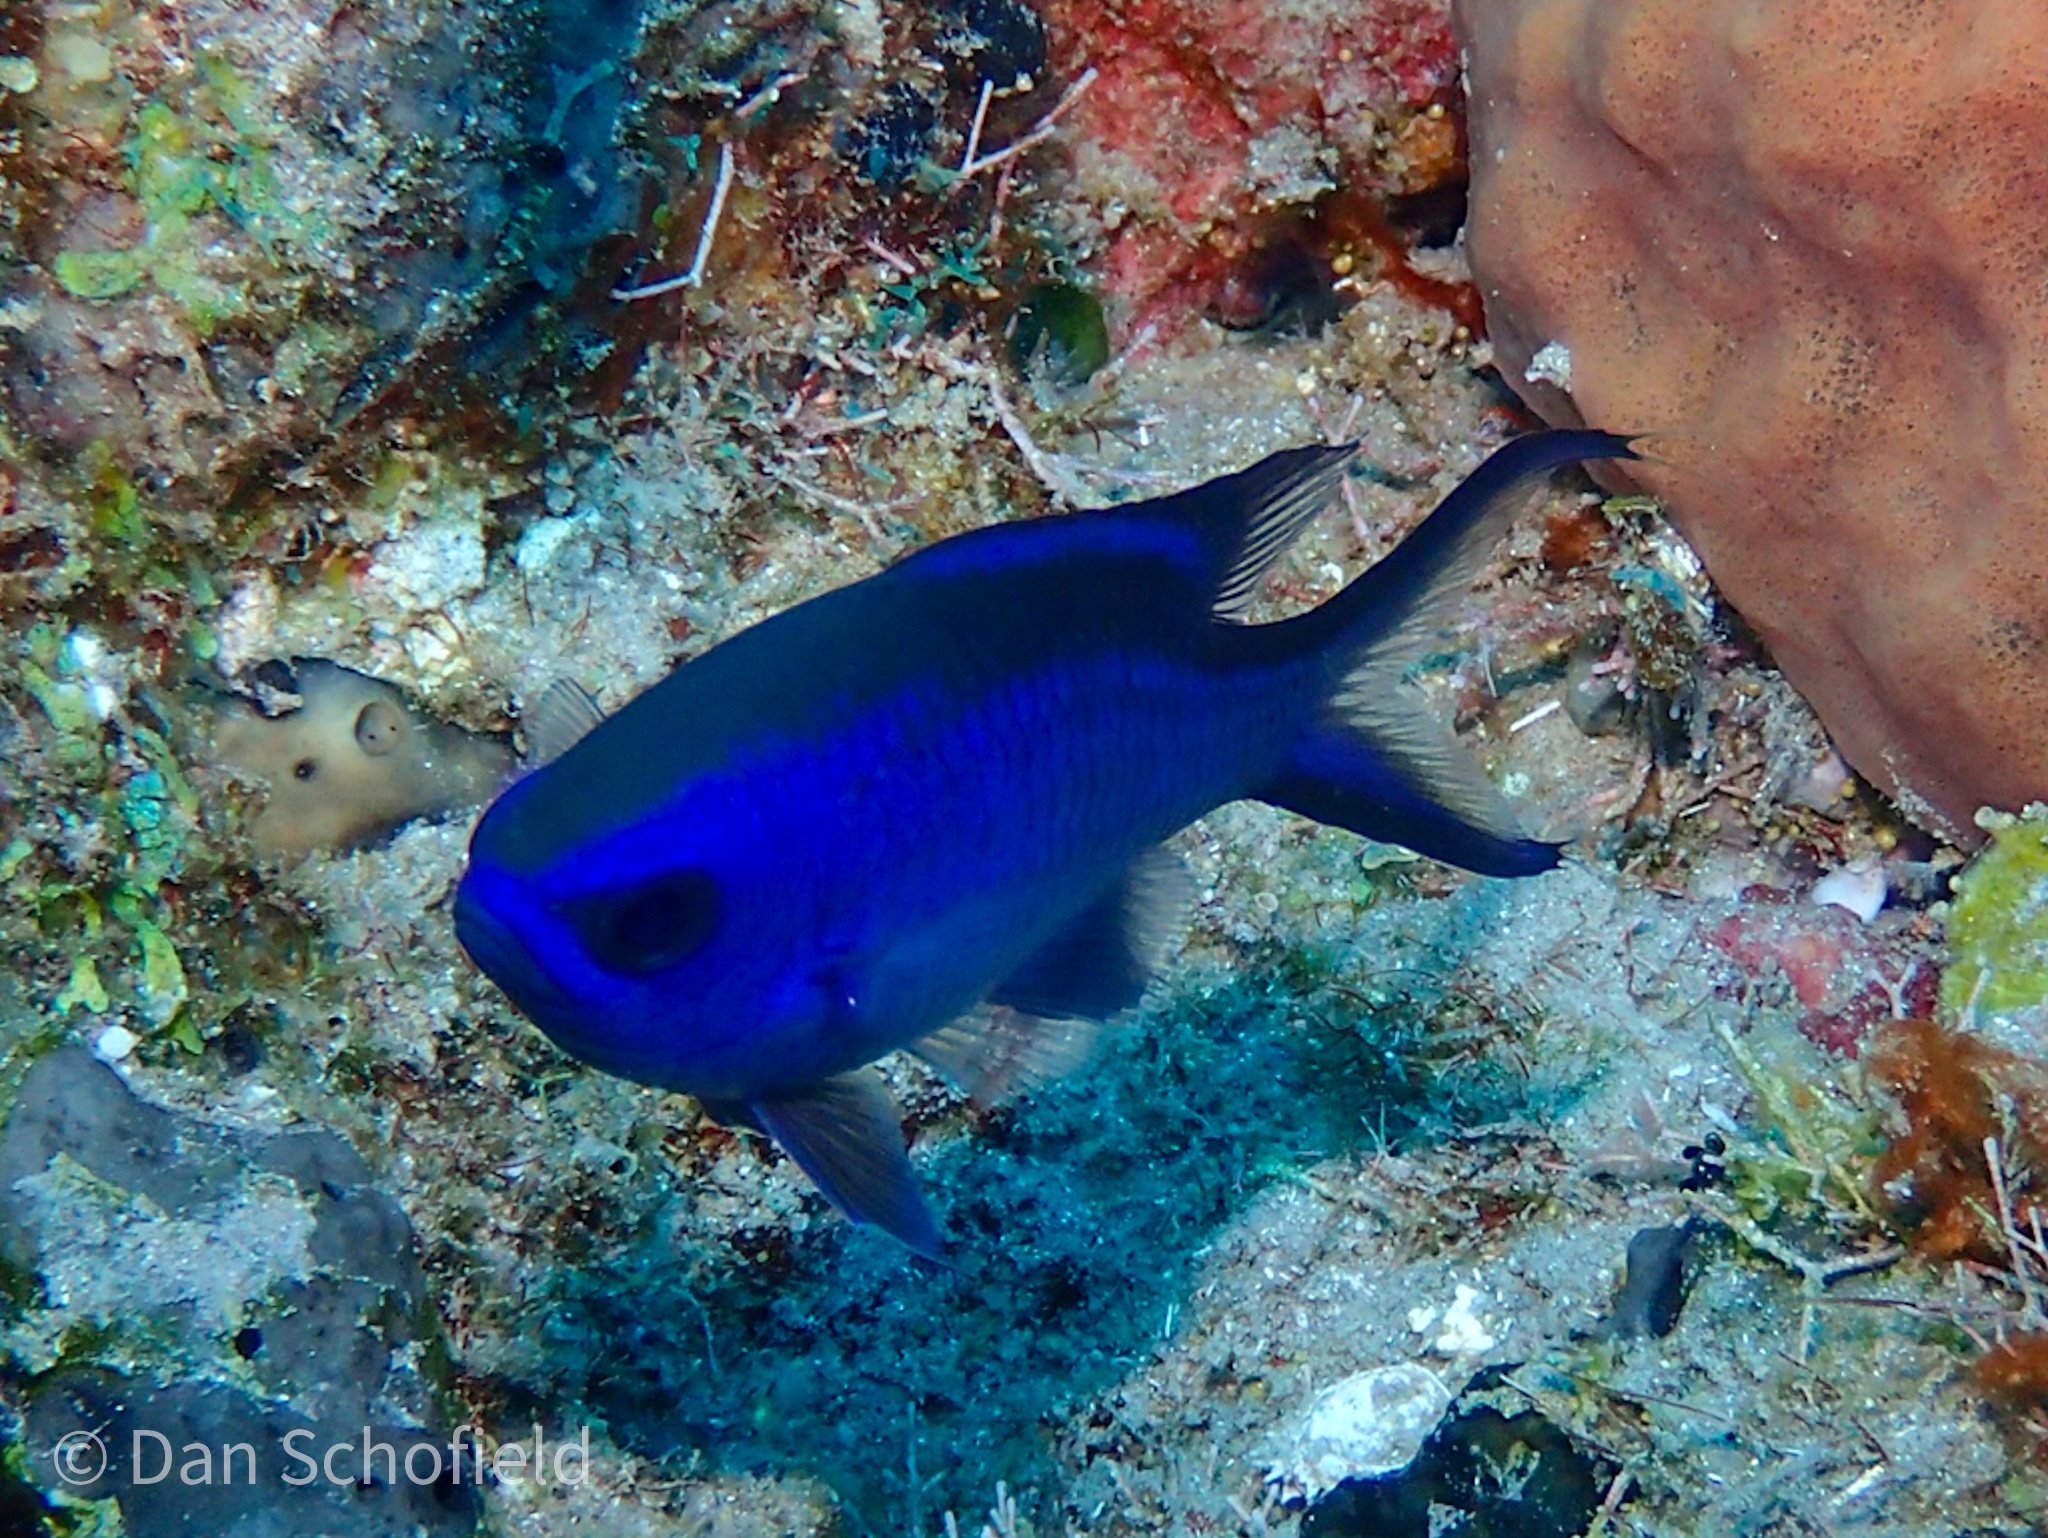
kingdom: Animalia
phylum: Chordata
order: Perciformes
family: Pomacentridae
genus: Chromis
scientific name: Chromis cyanea
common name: Blue chromis
